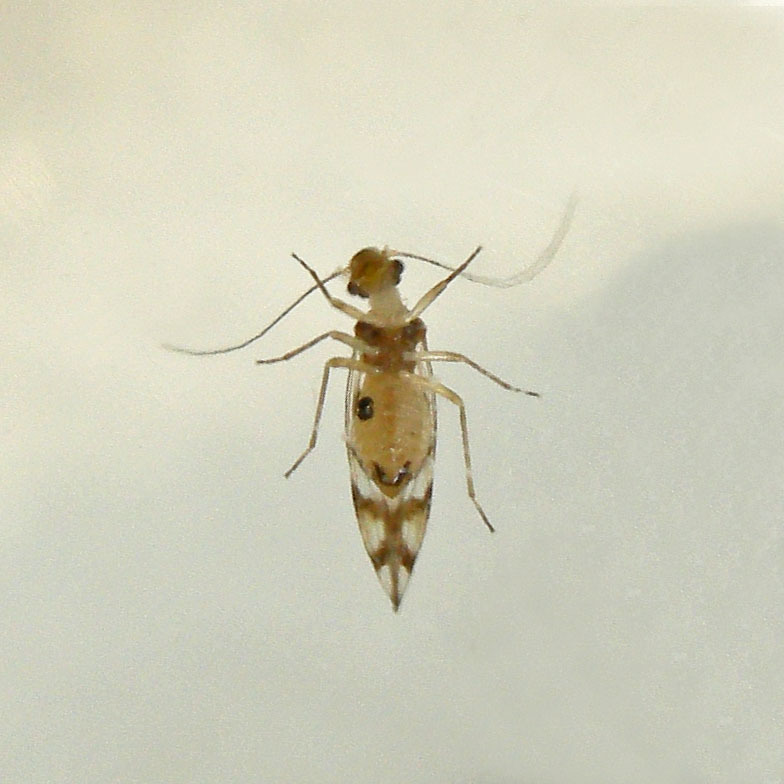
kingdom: Animalia
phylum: Arthropoda
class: Insecta
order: Psocodea
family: Stenopsocidae
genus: Graphopsocus
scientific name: Graphopsocus cruciatus
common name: Lizard bark louse
